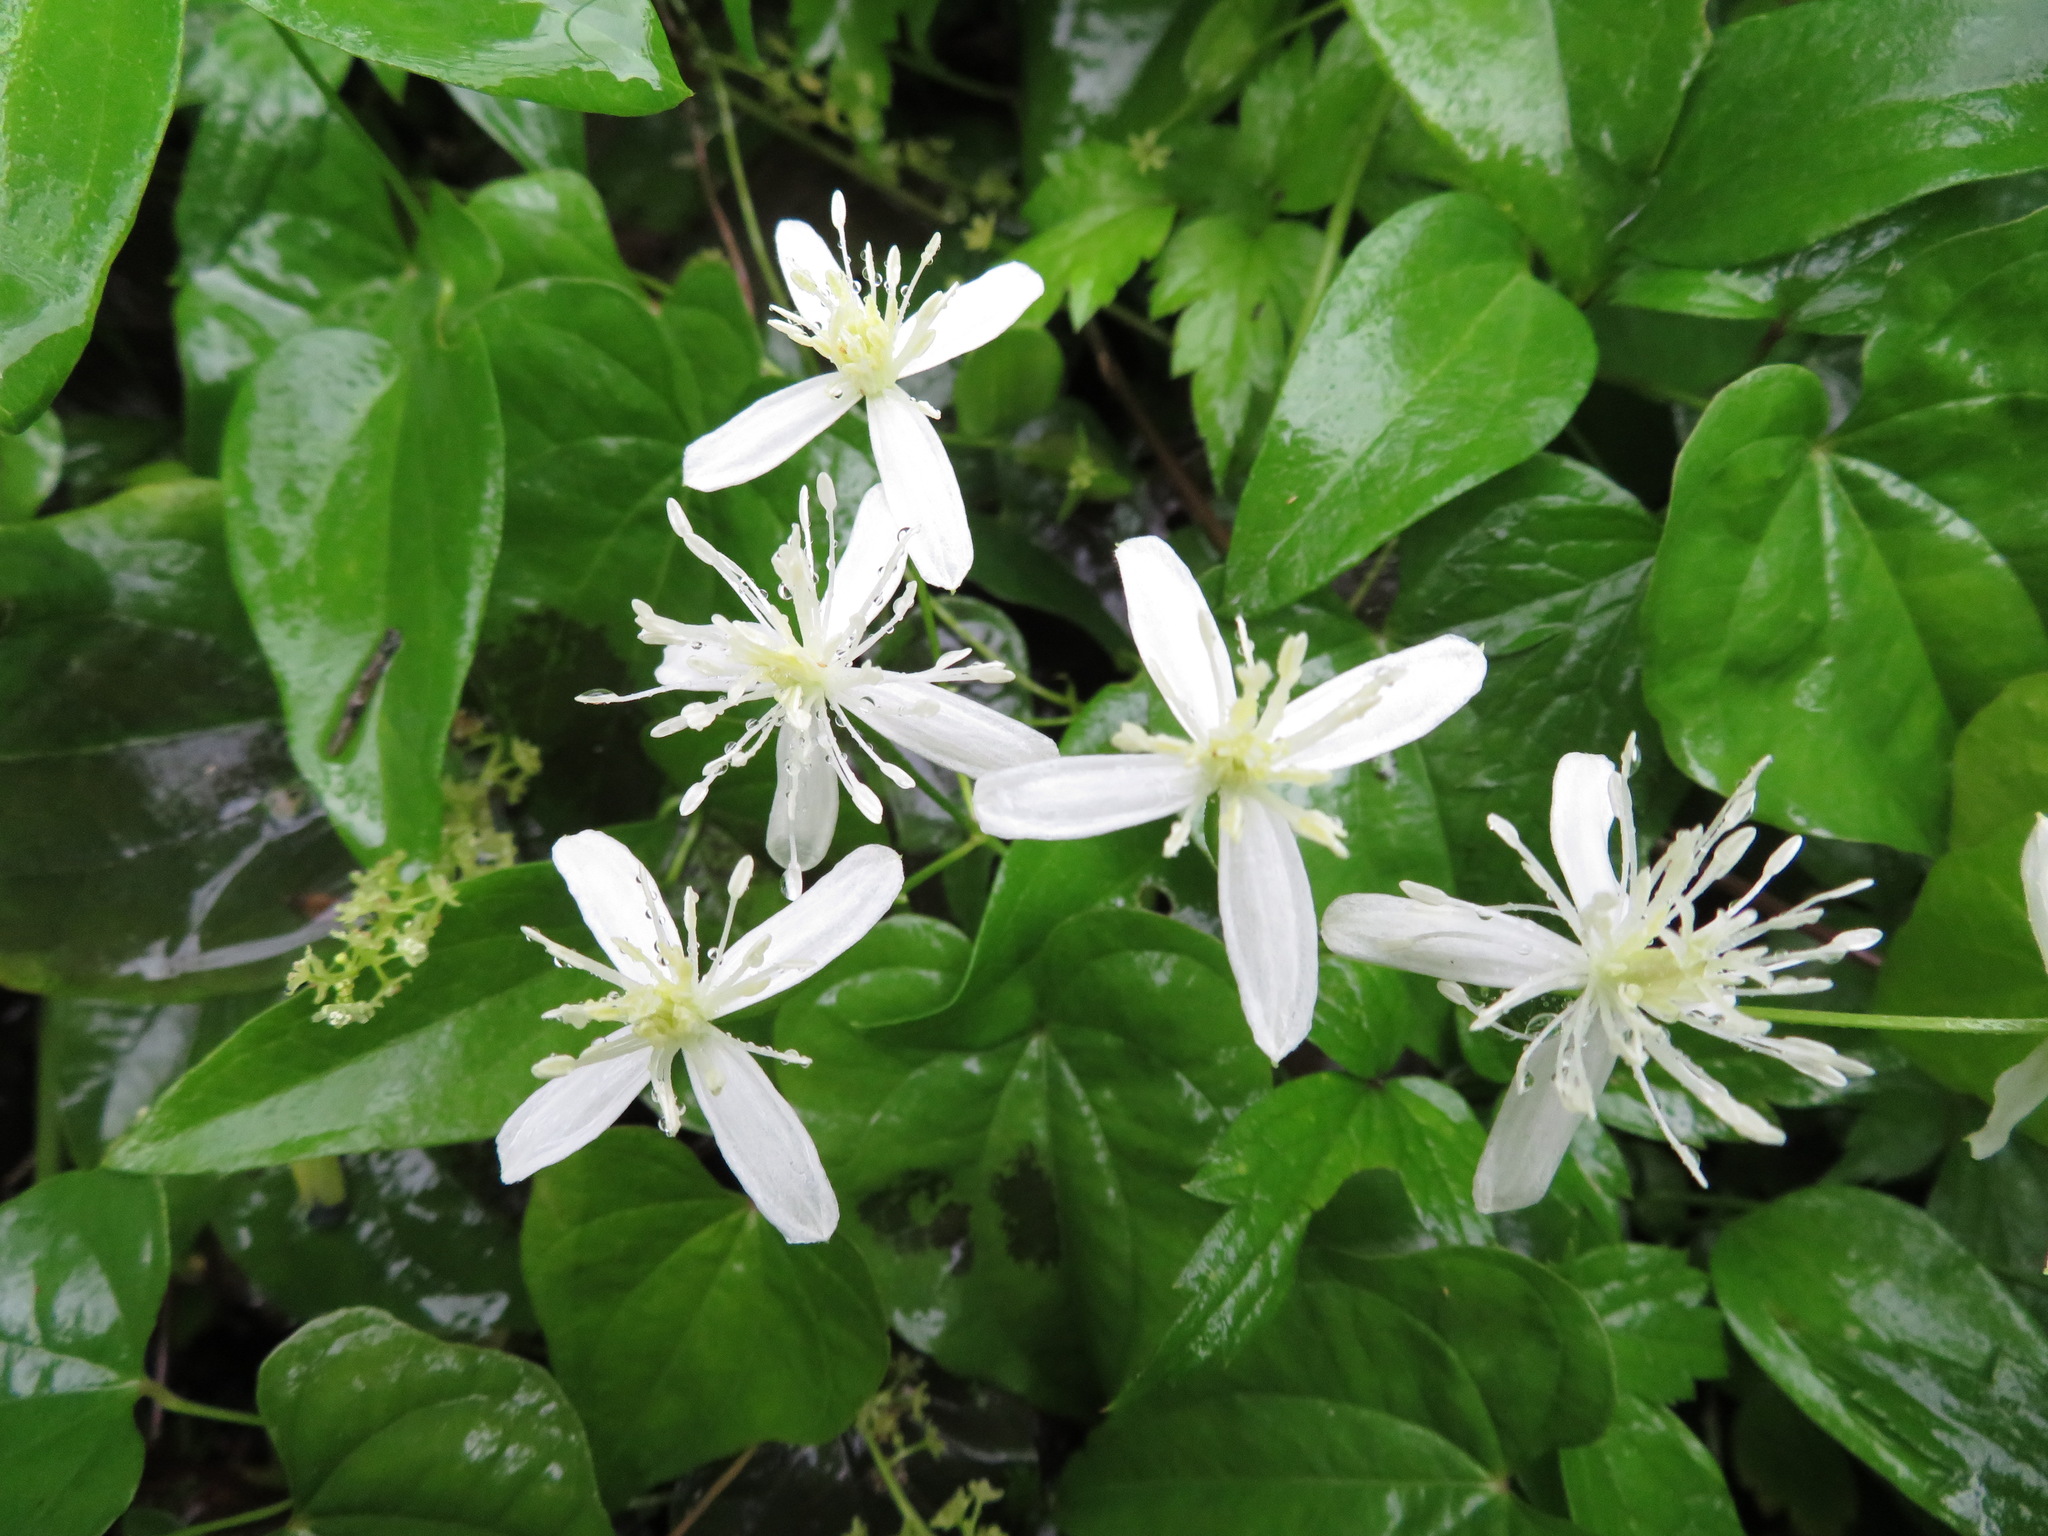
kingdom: Plantae
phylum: Tracheophyta
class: Magnoliopsida
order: Ranunculales
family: Ranunculaceae
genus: Clematis
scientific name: Clematis terniflora
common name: Sweet autumn clematis
